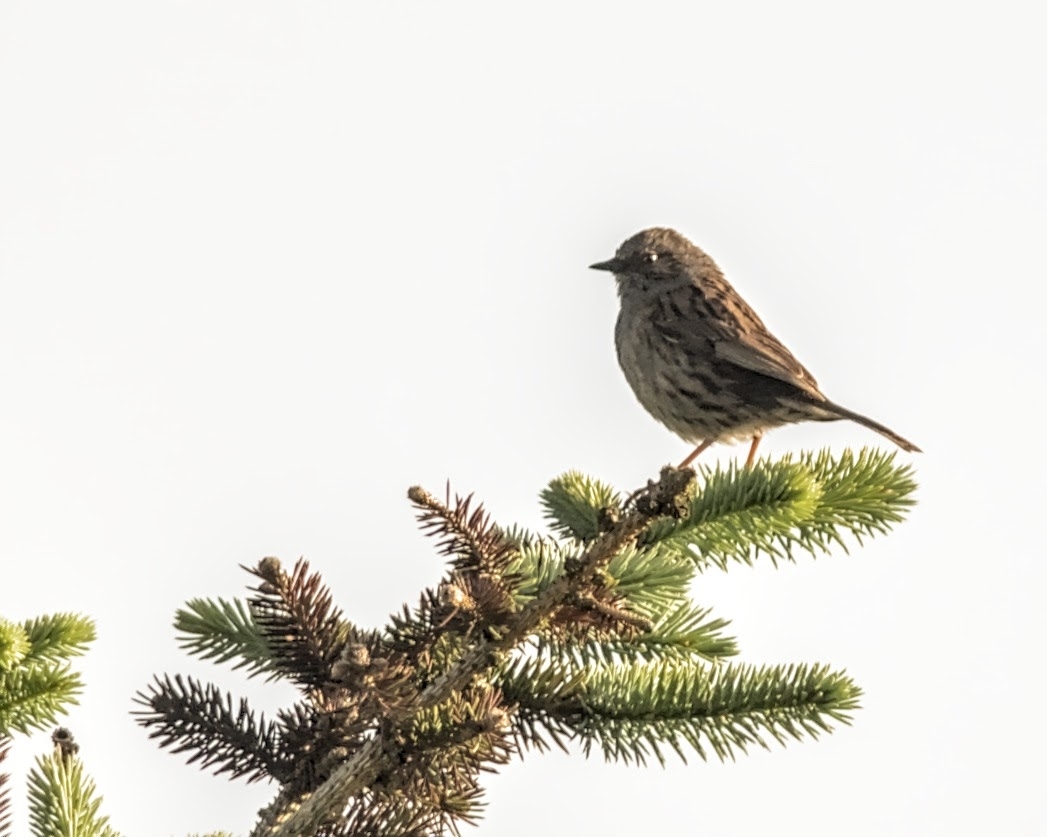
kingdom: Animalia
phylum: Chordata
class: Aves
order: Passeriformes
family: Prunellidae
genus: Prunella
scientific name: Prunella modularis
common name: Dunnock
